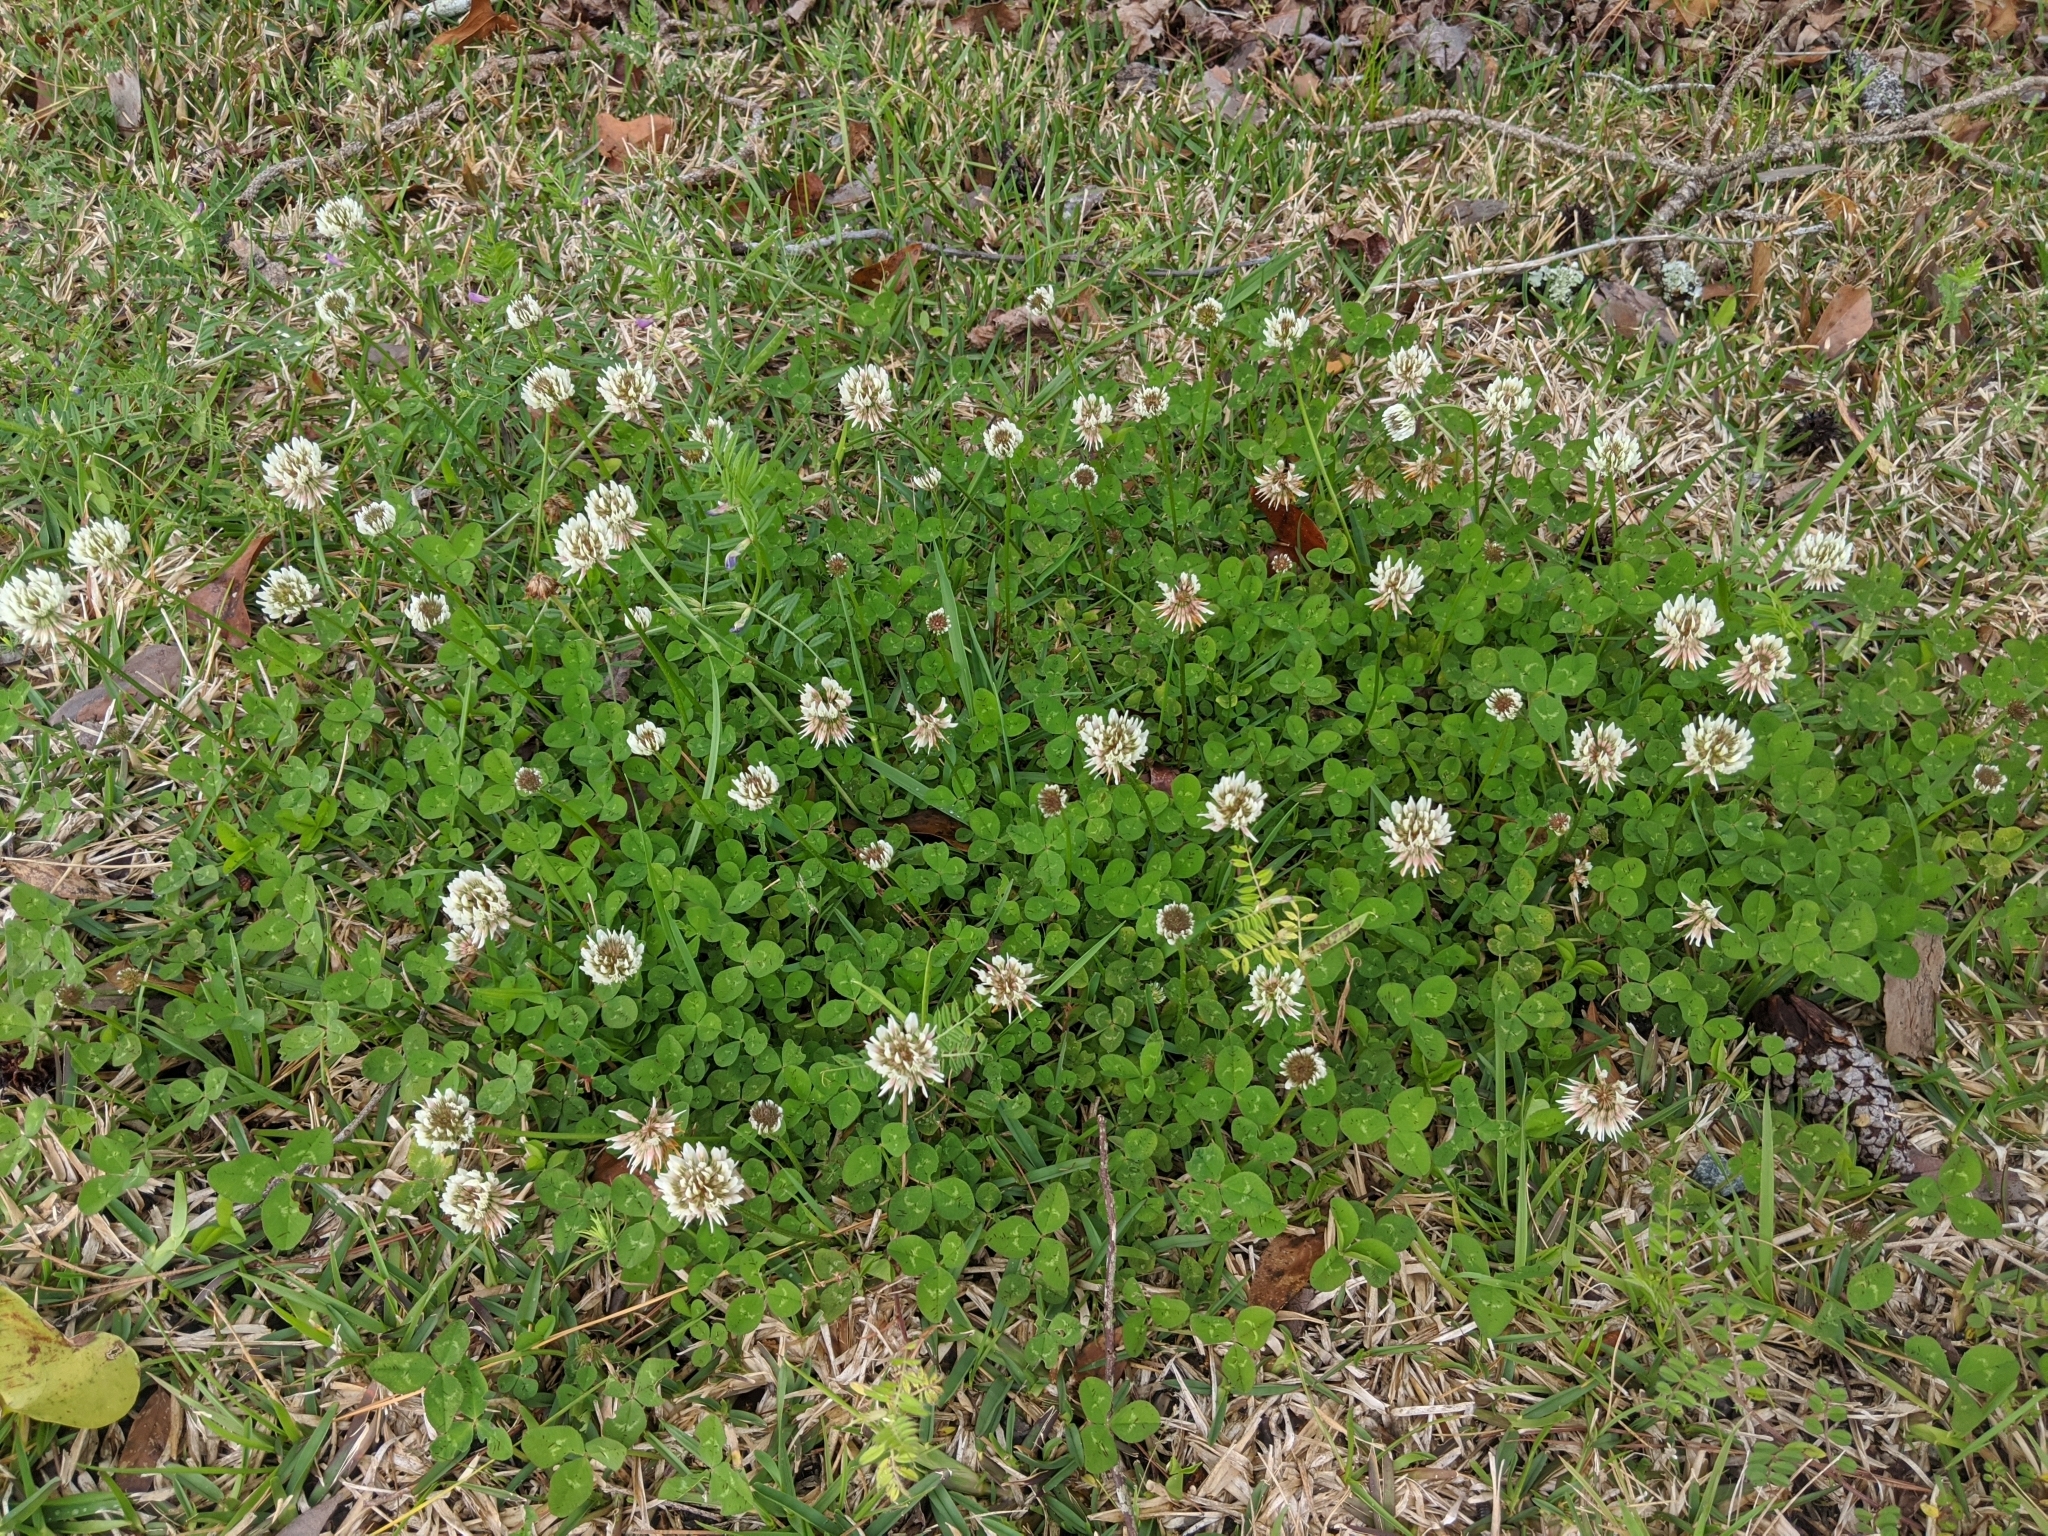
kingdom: Plantae
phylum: Tracheophyta
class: Magnoliopsida
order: Fabales
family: Fabaceae
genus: Trifolium
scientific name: Trifolium repens
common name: White clover
